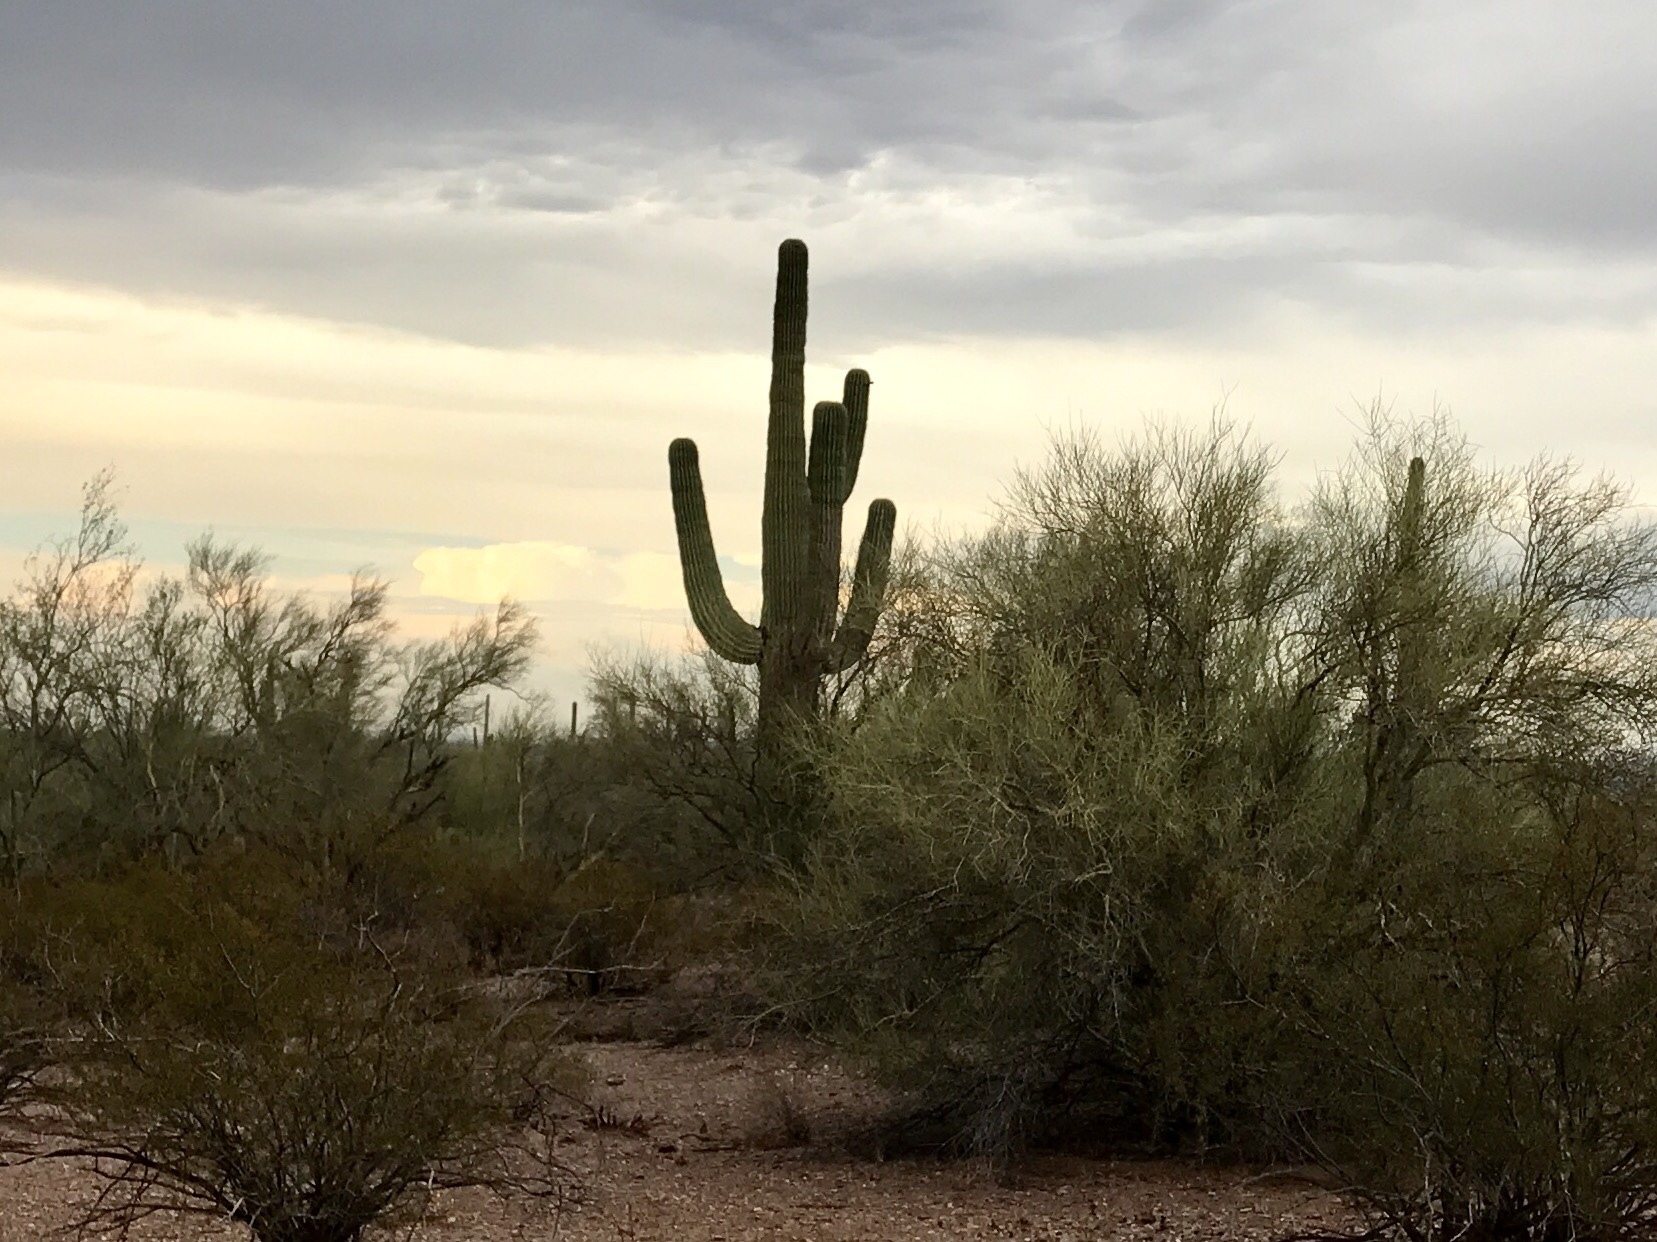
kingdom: Plantae
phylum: Tracheophyta
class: Magnoliopsida
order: Caryophyllales
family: Cactaceae
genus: Carnegiea
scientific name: Carnegiea gigantea
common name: Saguaro
